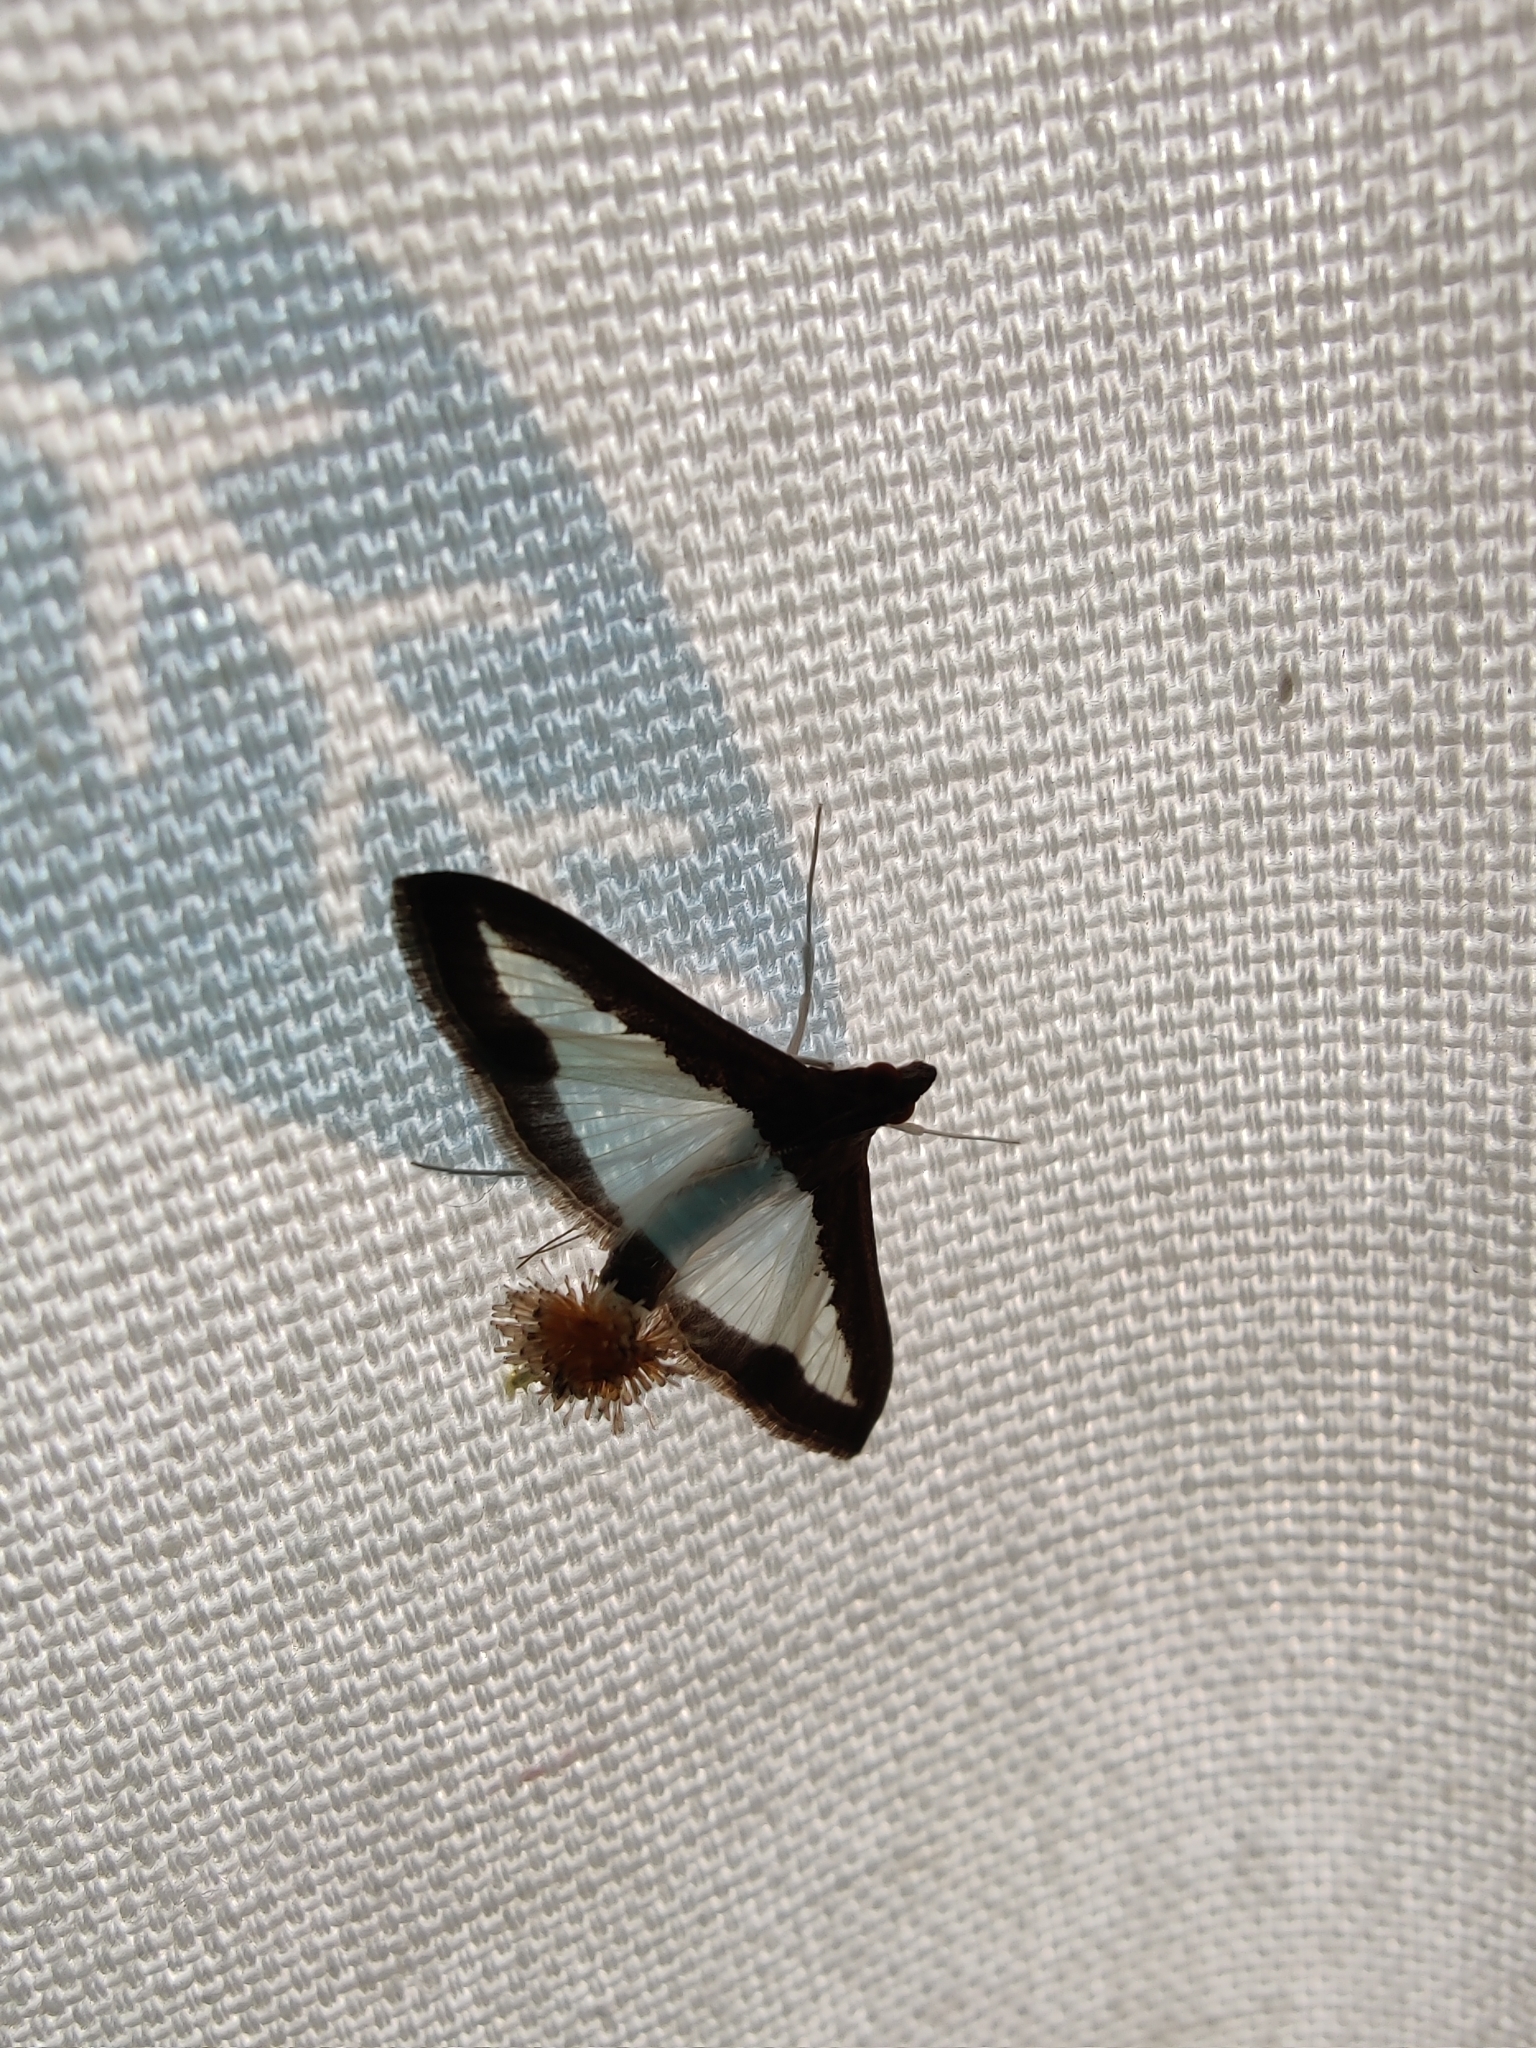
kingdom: Animalia
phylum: Arthropoda
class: Insecta
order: Lepidoptera
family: Crambidae
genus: Diaphania
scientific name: Diaphania indica
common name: Cucumber moth
